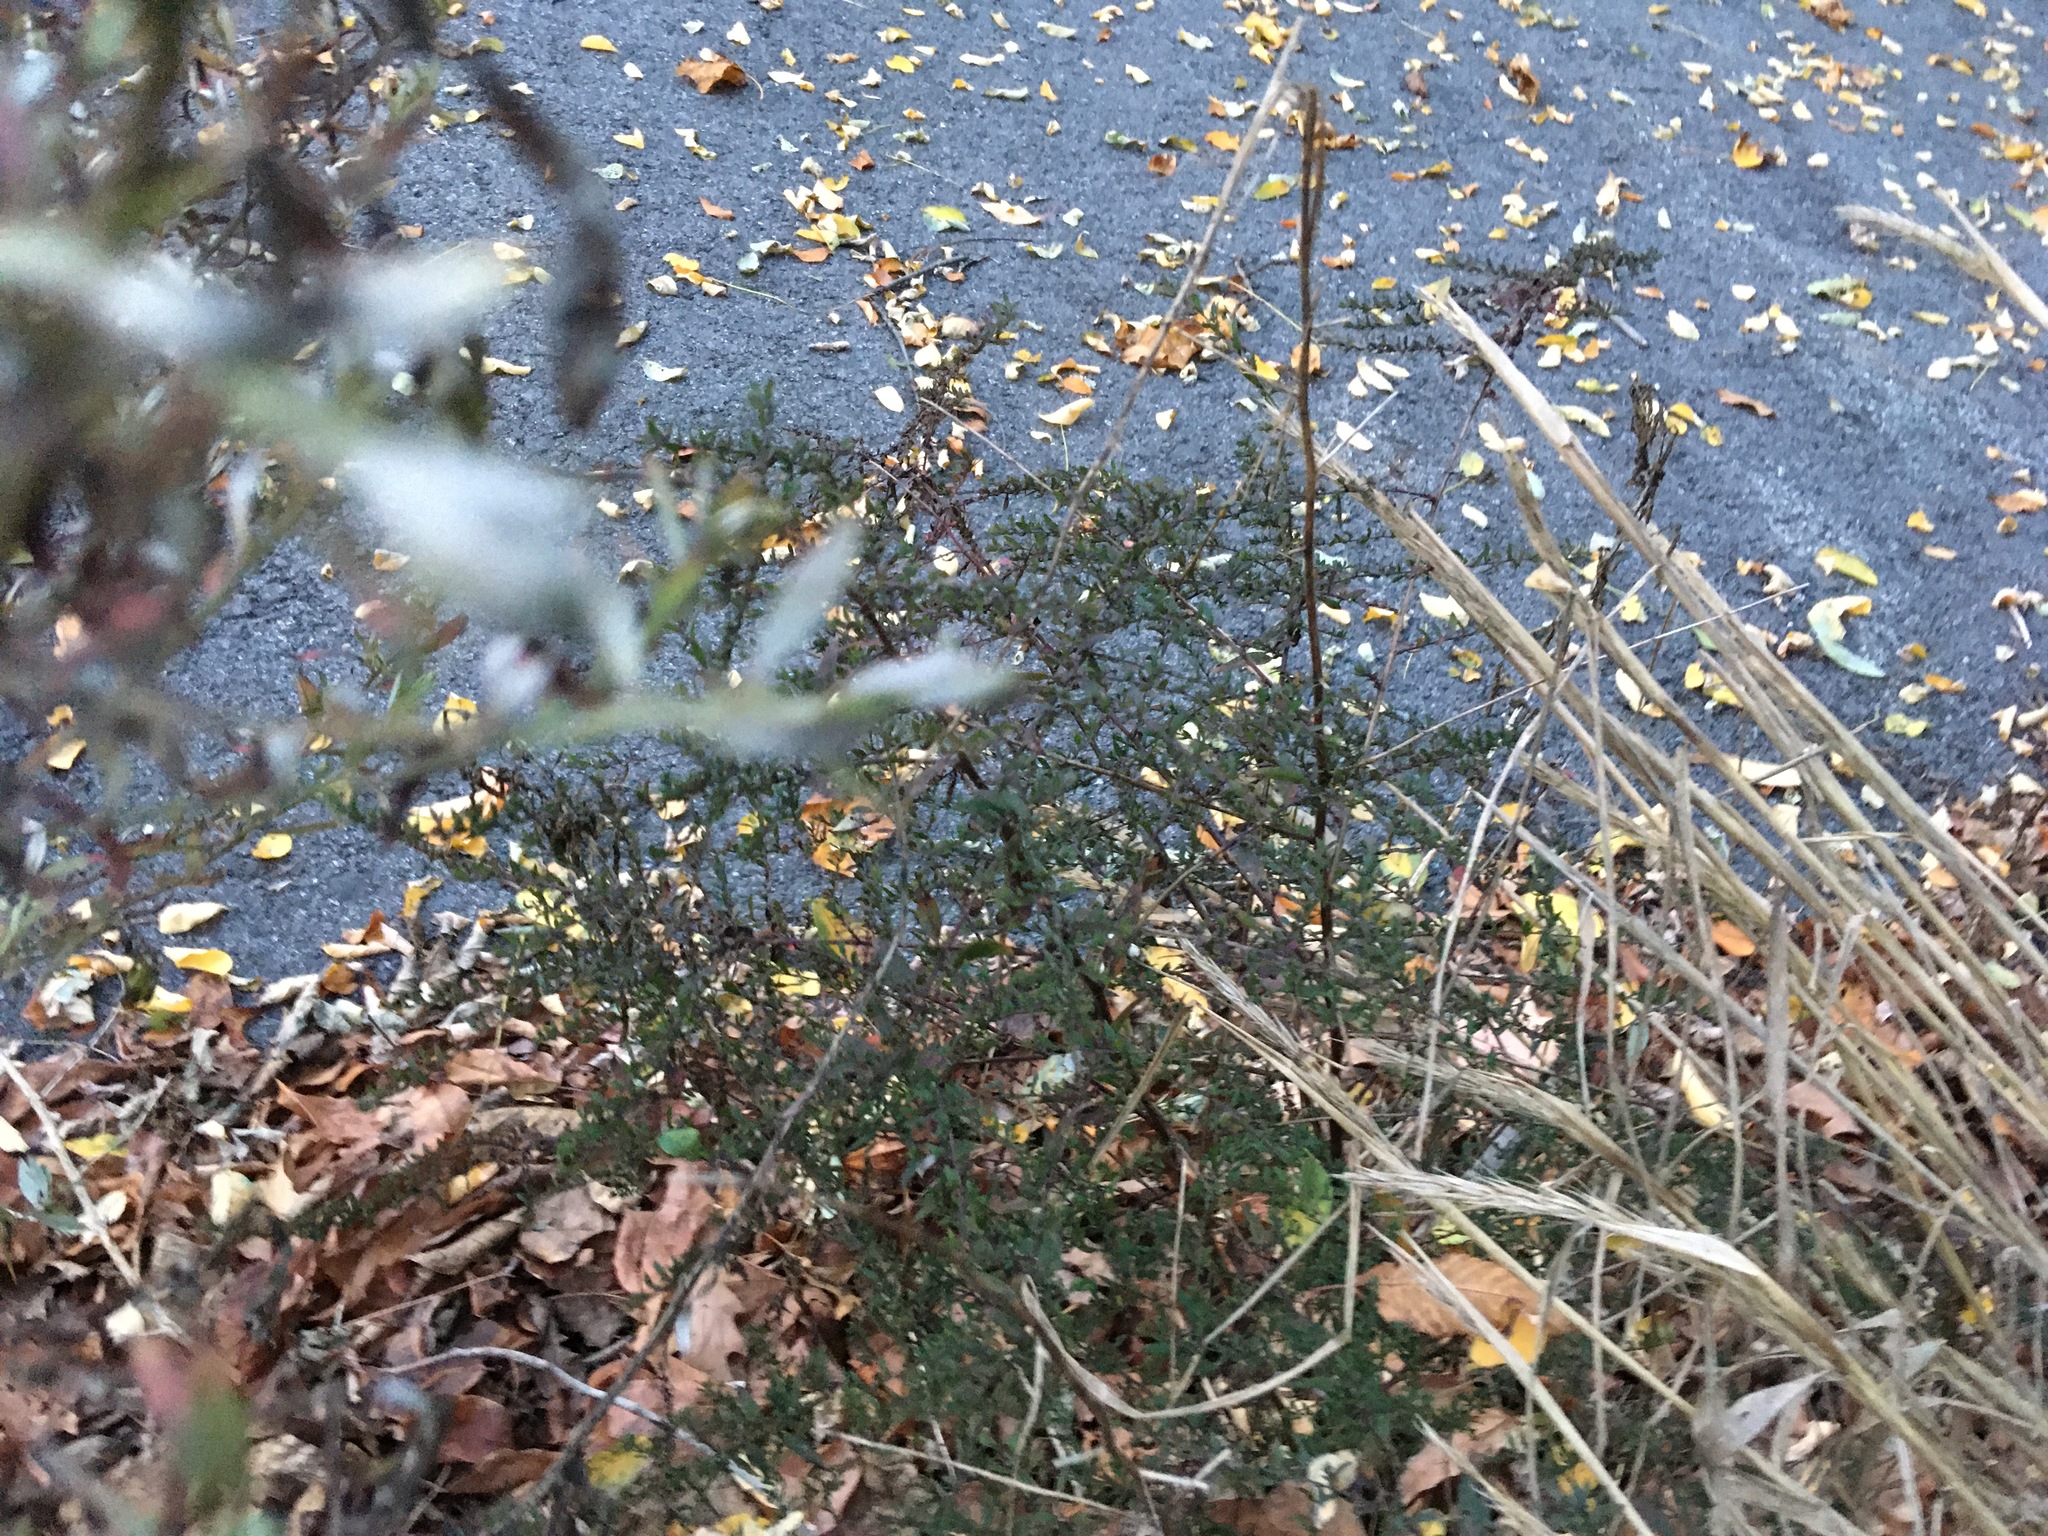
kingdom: Plantae
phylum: Tracheophyta
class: Magnoliopsida
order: Asterales
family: Asteraceae
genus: Artemisia
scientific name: Artemisia vulgaris
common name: Mugwort
